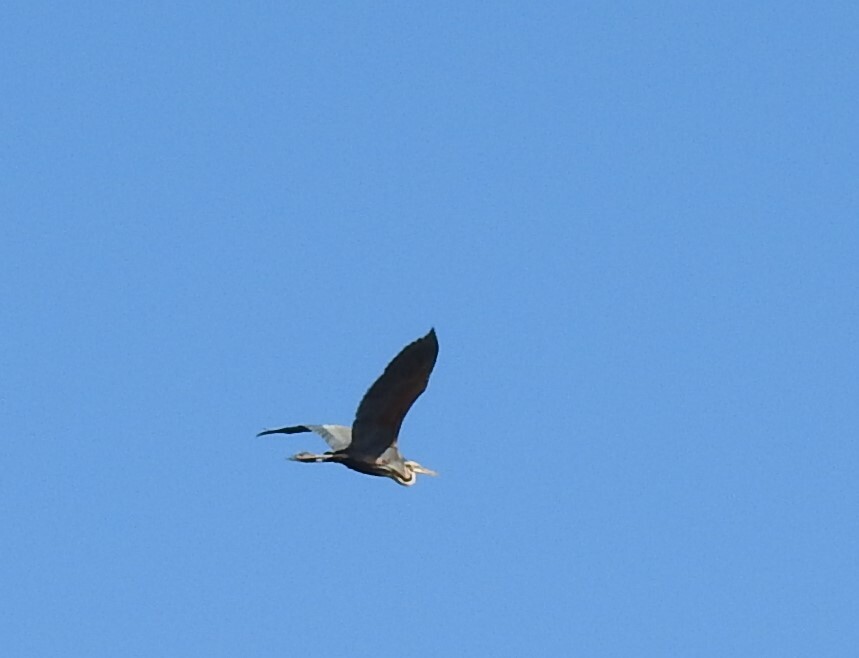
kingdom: Animalia
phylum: Chordata
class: Aves
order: Pelecaniformes
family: Ardeidae
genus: Ardea
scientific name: Ardea purpurea
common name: Purple heron
